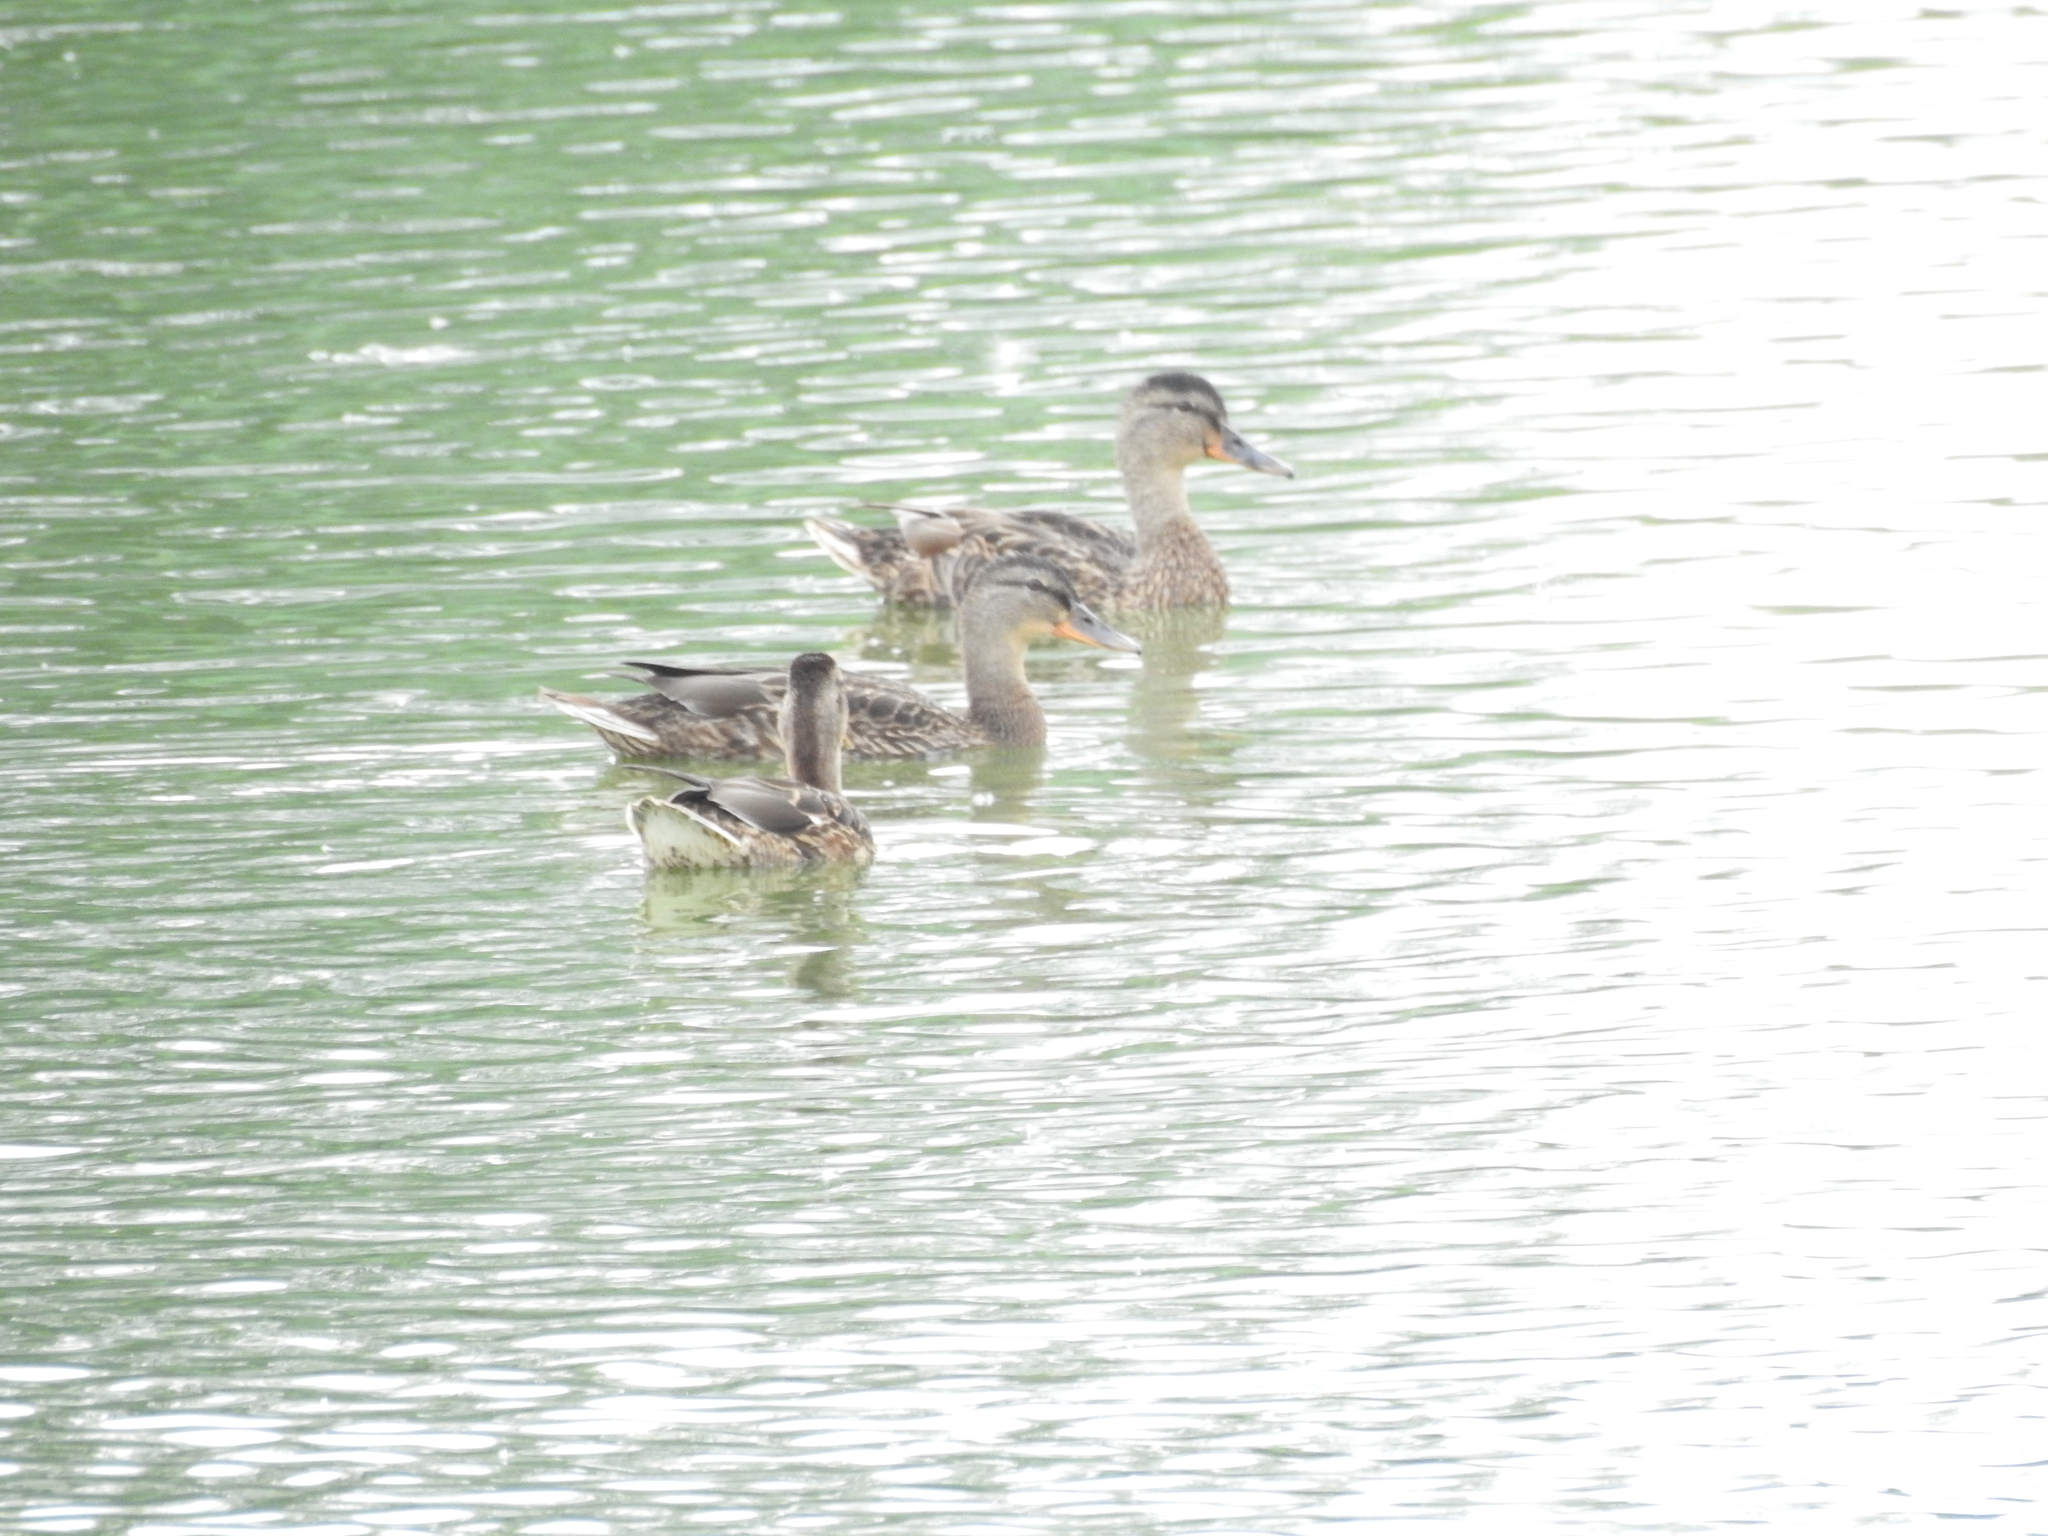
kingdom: Animalia
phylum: Chordata
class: Aves
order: Anseriformes
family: Anatidae
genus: Anas
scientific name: Anas platyrhynchos
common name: Mallard
